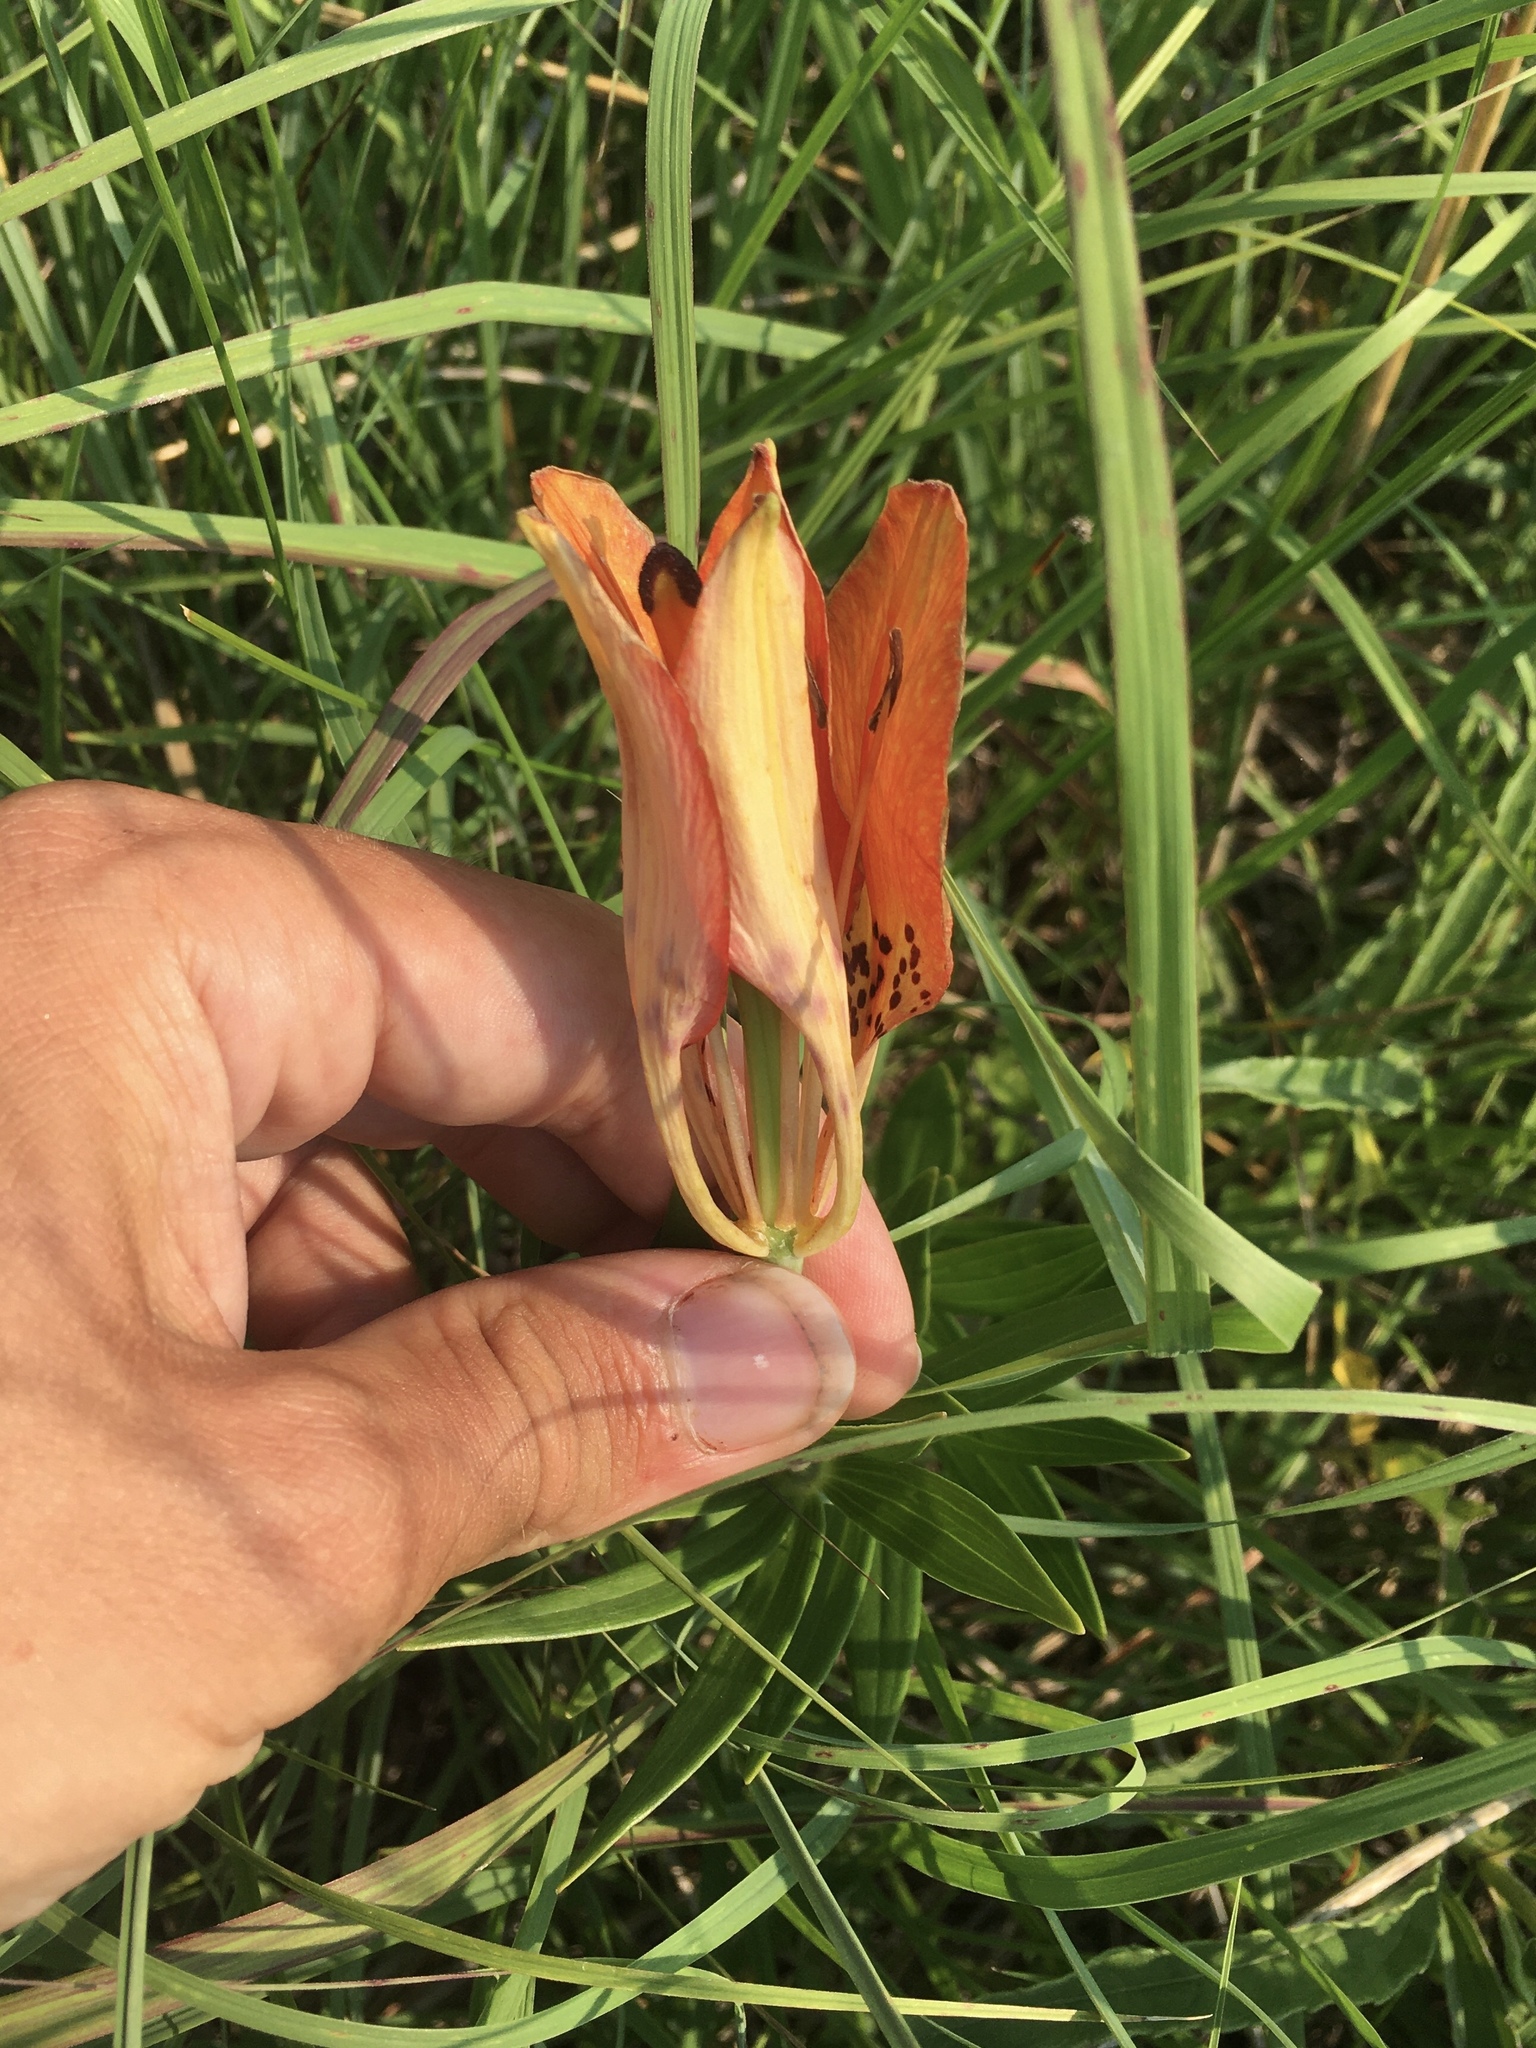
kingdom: Plantae
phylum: Tracheophyta
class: Liliopsida
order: Liliales
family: Liliaceae
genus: Lilium
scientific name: Lilium philadelphicum
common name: Red lily
